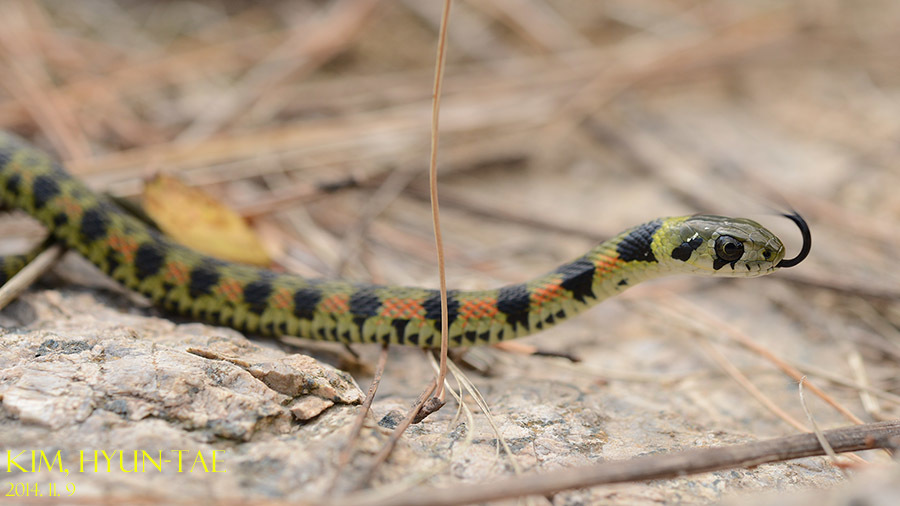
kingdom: Animalia
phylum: Chordata
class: Squamata
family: Colubridae
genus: Rhabdophis
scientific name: Rhabdophis tigrinus
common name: Tiger keelback
